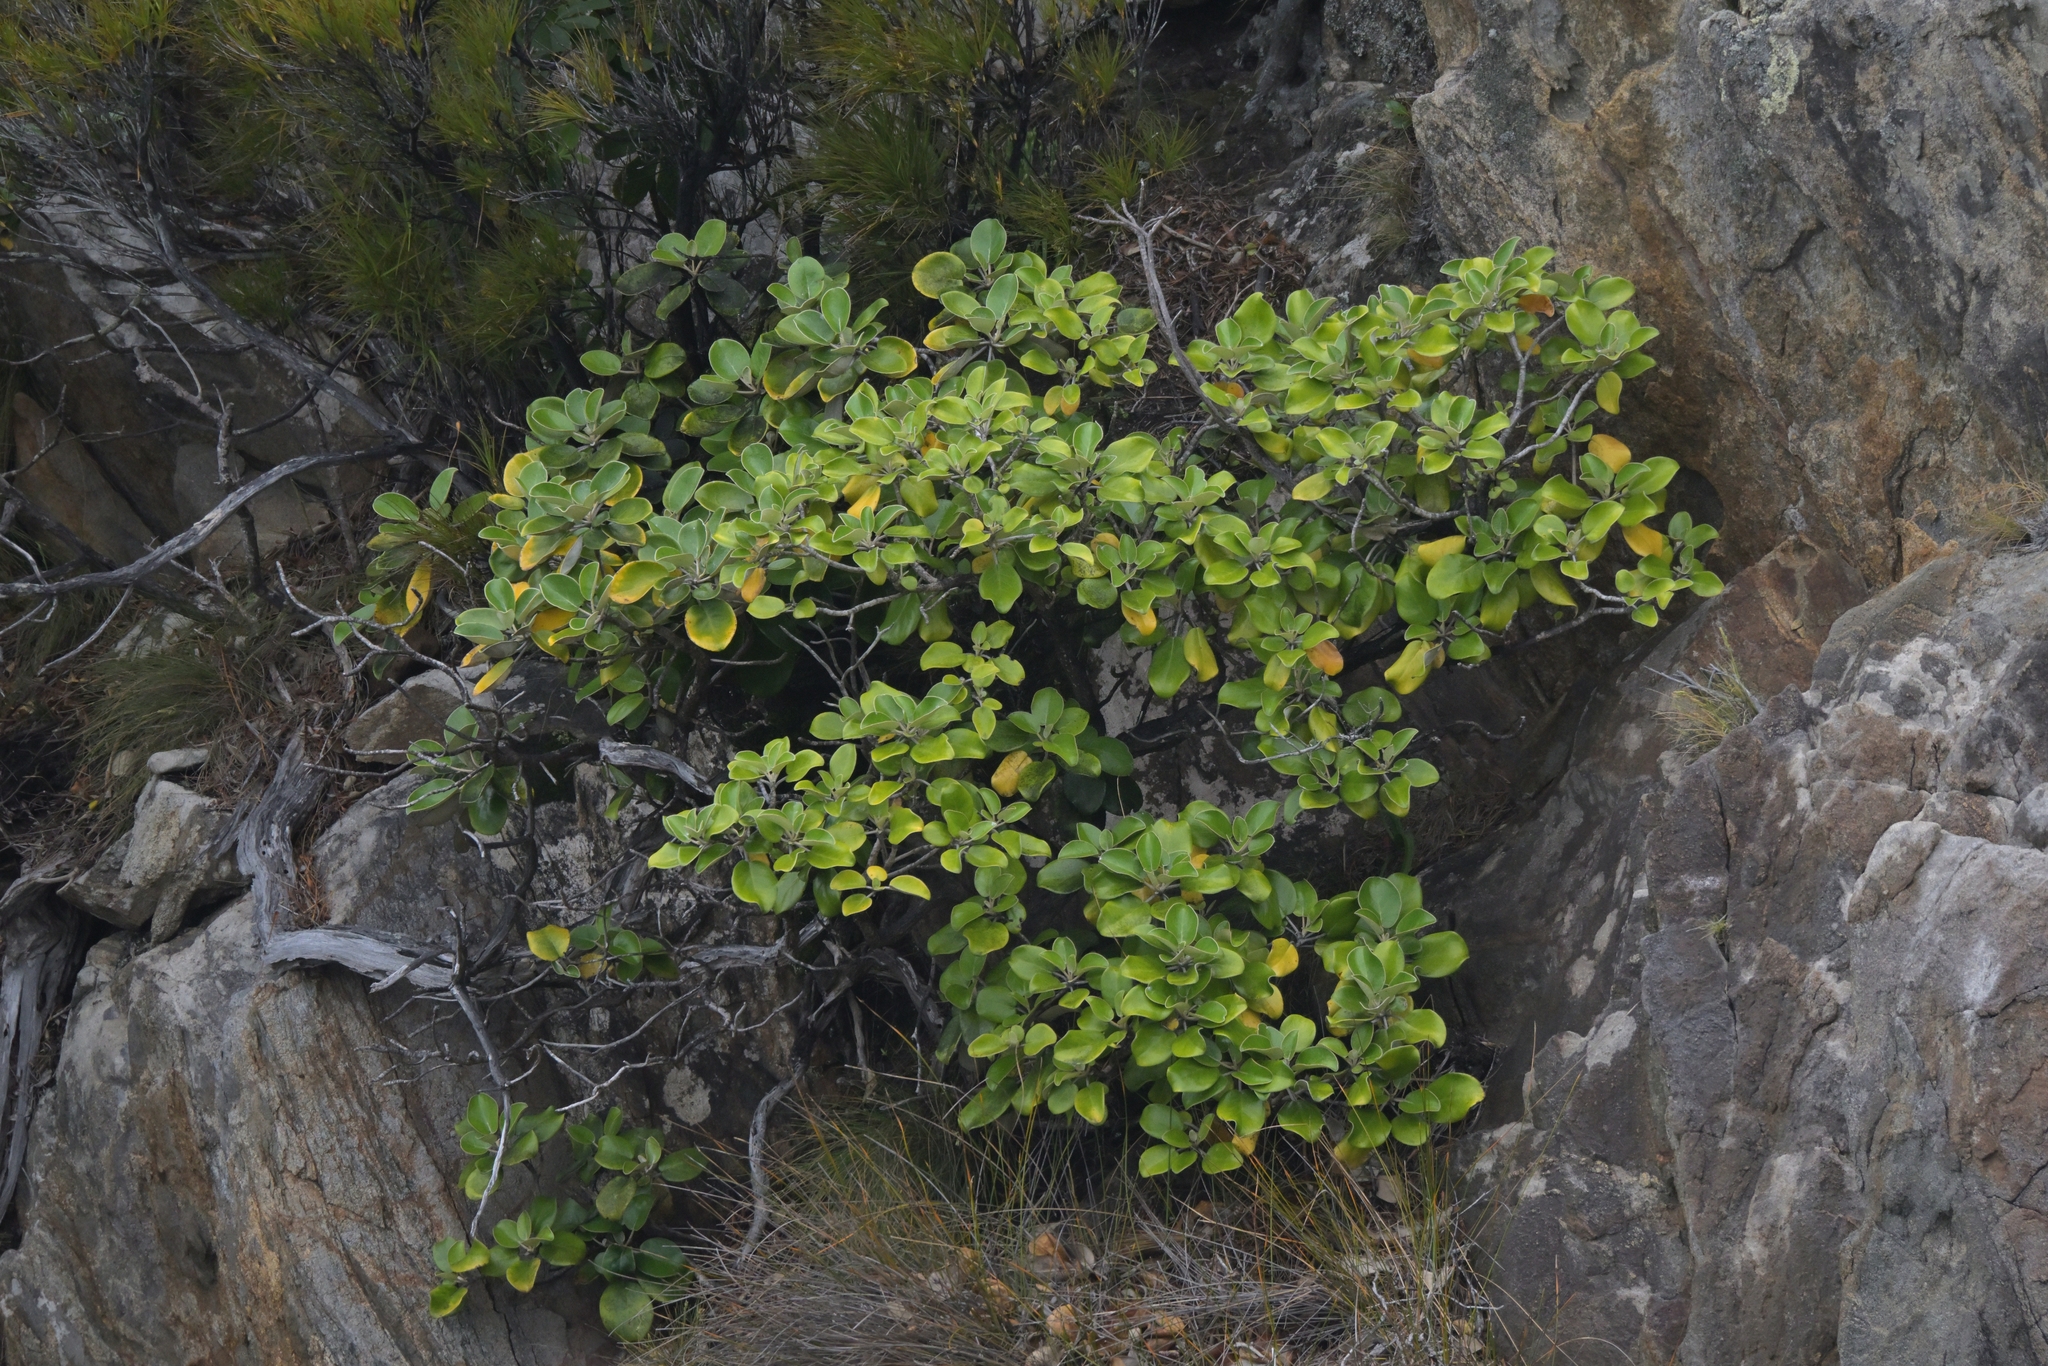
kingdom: Plantae
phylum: Tracheophyta
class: Magnoliopsida
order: Asterales
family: Asteraceae
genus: Brachyglottis
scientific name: Brachyglottis rotundifolia
